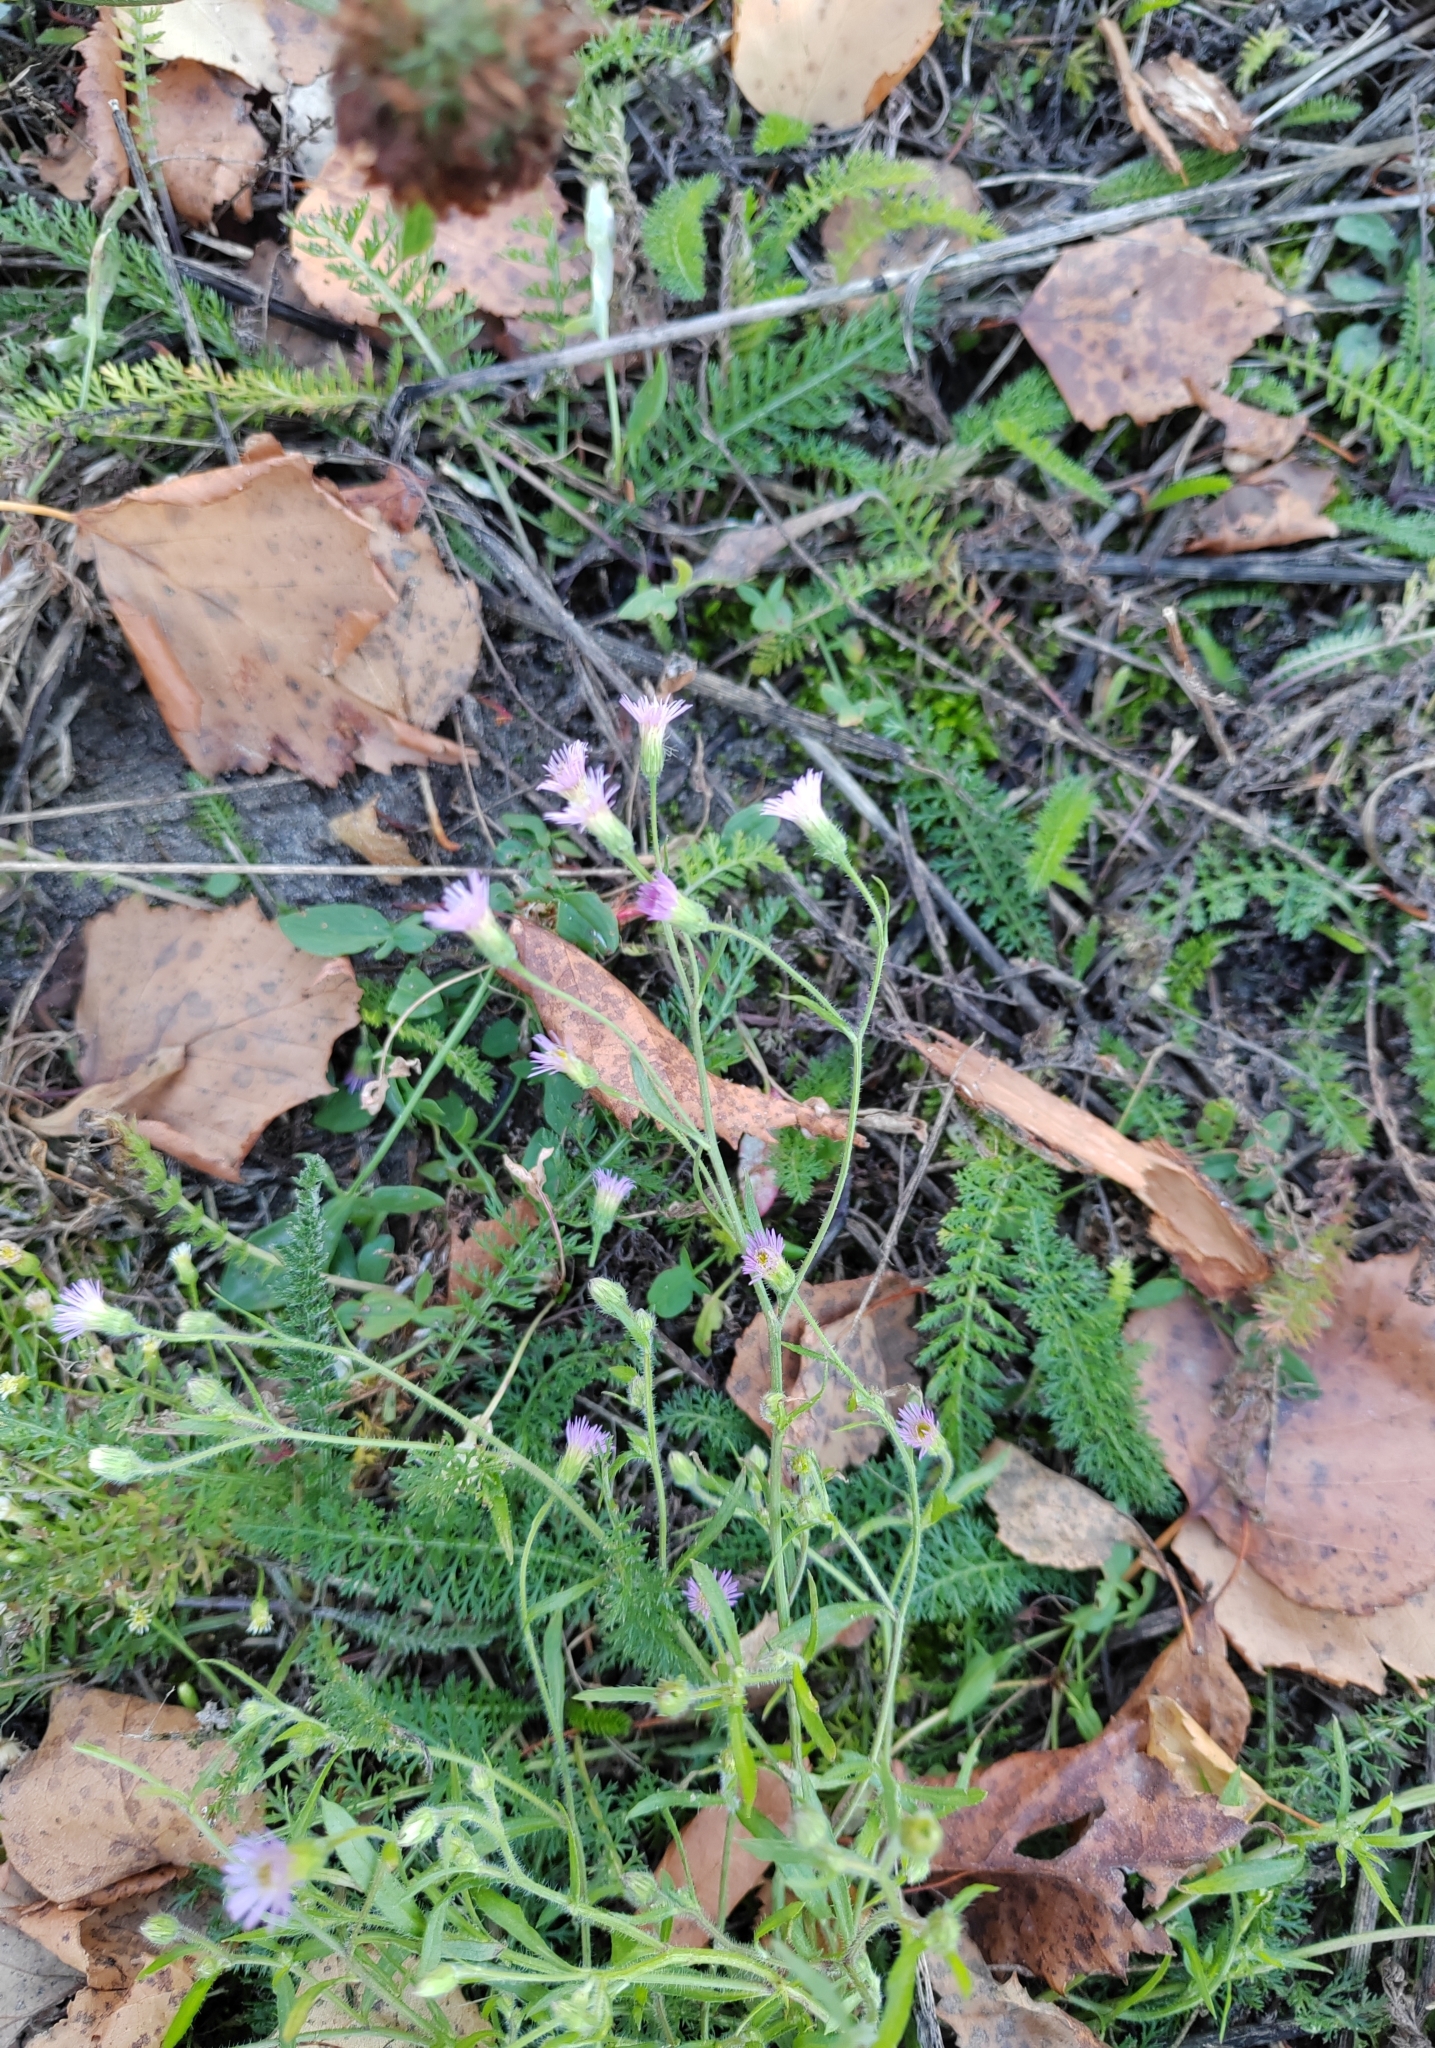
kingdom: Plantae
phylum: Tracheophyta
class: Magnoliopsida
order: Asterales
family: Asteraceae
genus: Erigeron
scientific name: Erigeron acris
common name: Blue fleabane
